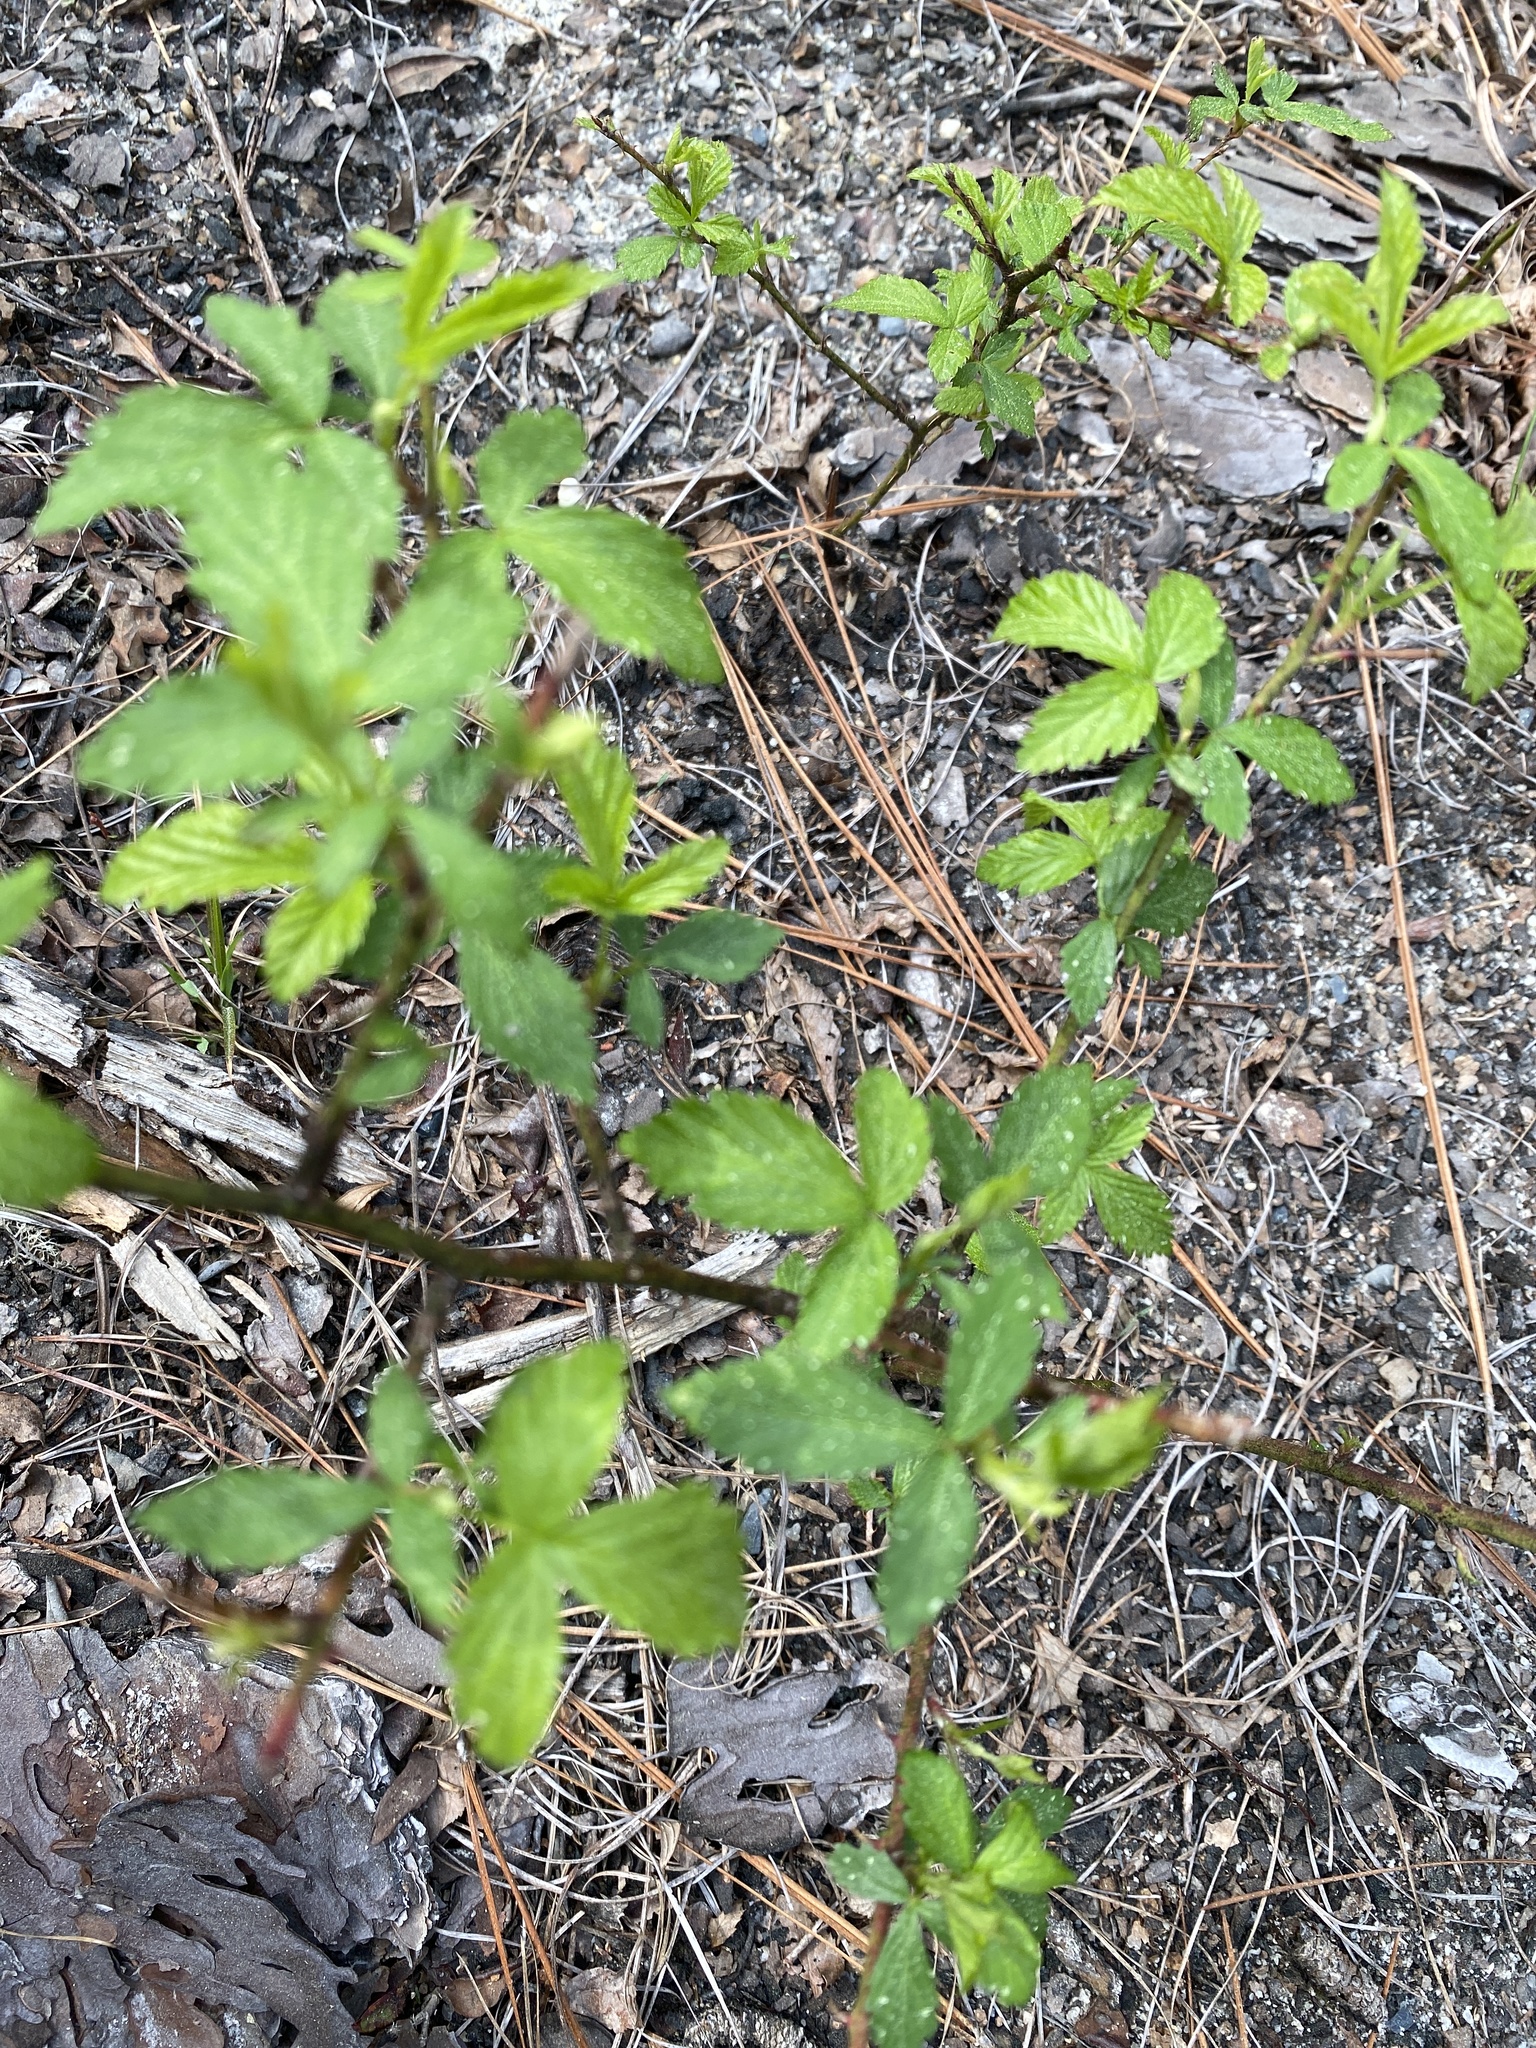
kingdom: Plantae
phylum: Tracheophyta
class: Magnoliopsida
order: Rosales
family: Rosaceae
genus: Rubus
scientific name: Rubus cuneifolius
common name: American bramble
